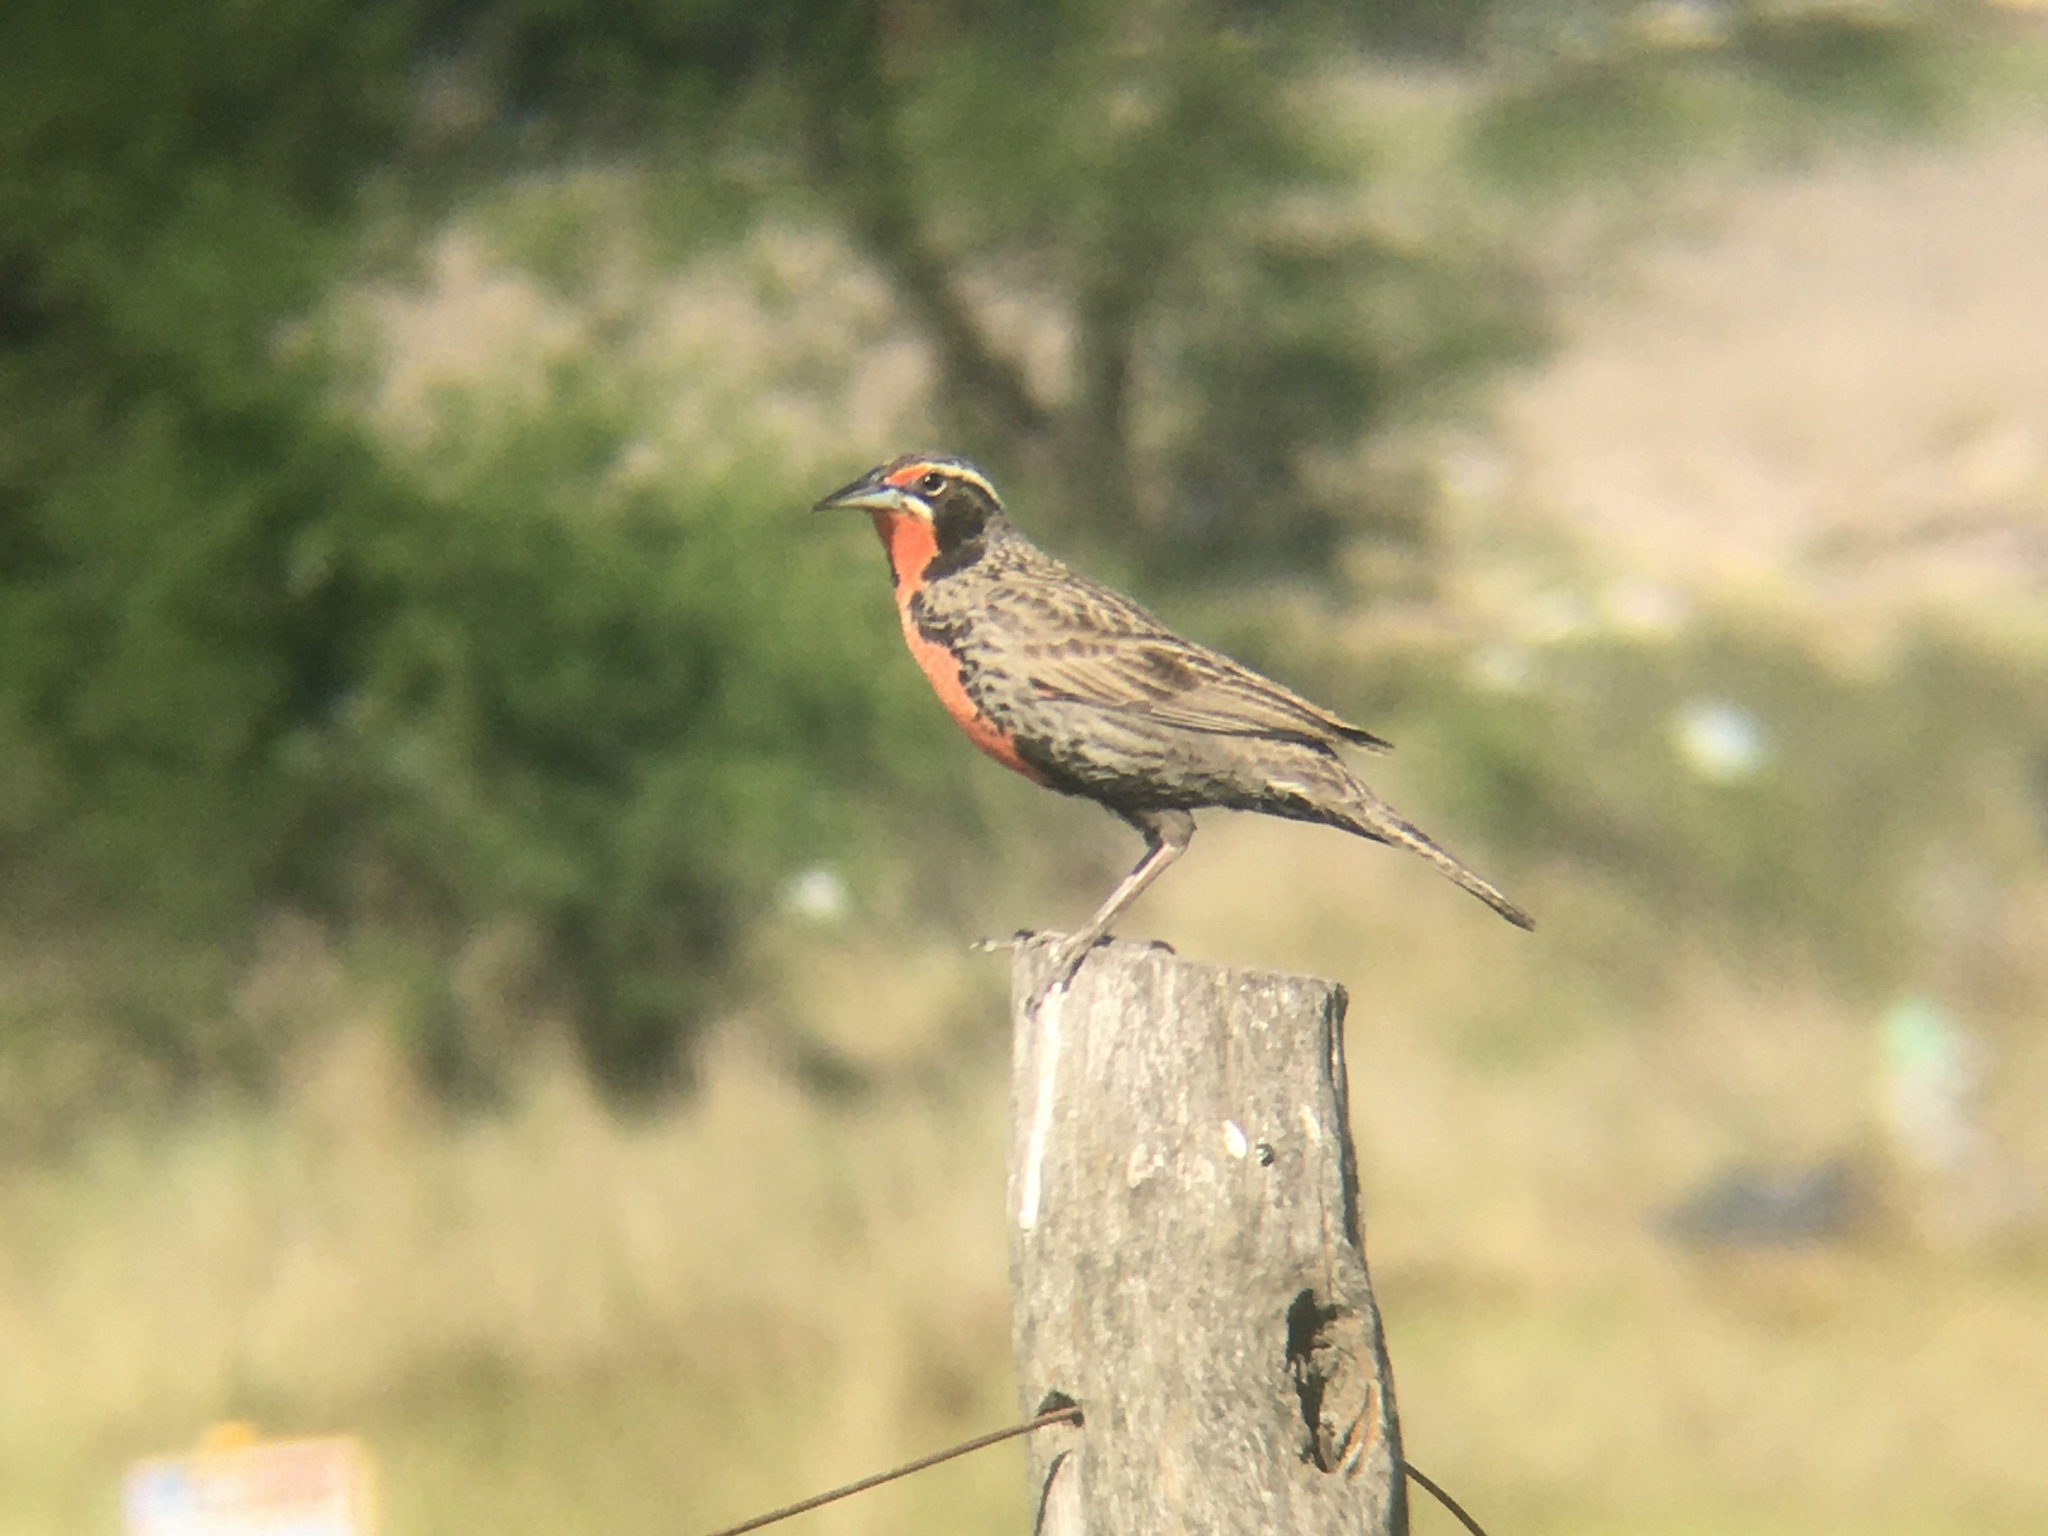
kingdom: Animalia
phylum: Chordata
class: Aves
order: Passeriformes
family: Icteridae
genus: Sturnella
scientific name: Sturnella loyca
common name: Long-tailed meadowlark
